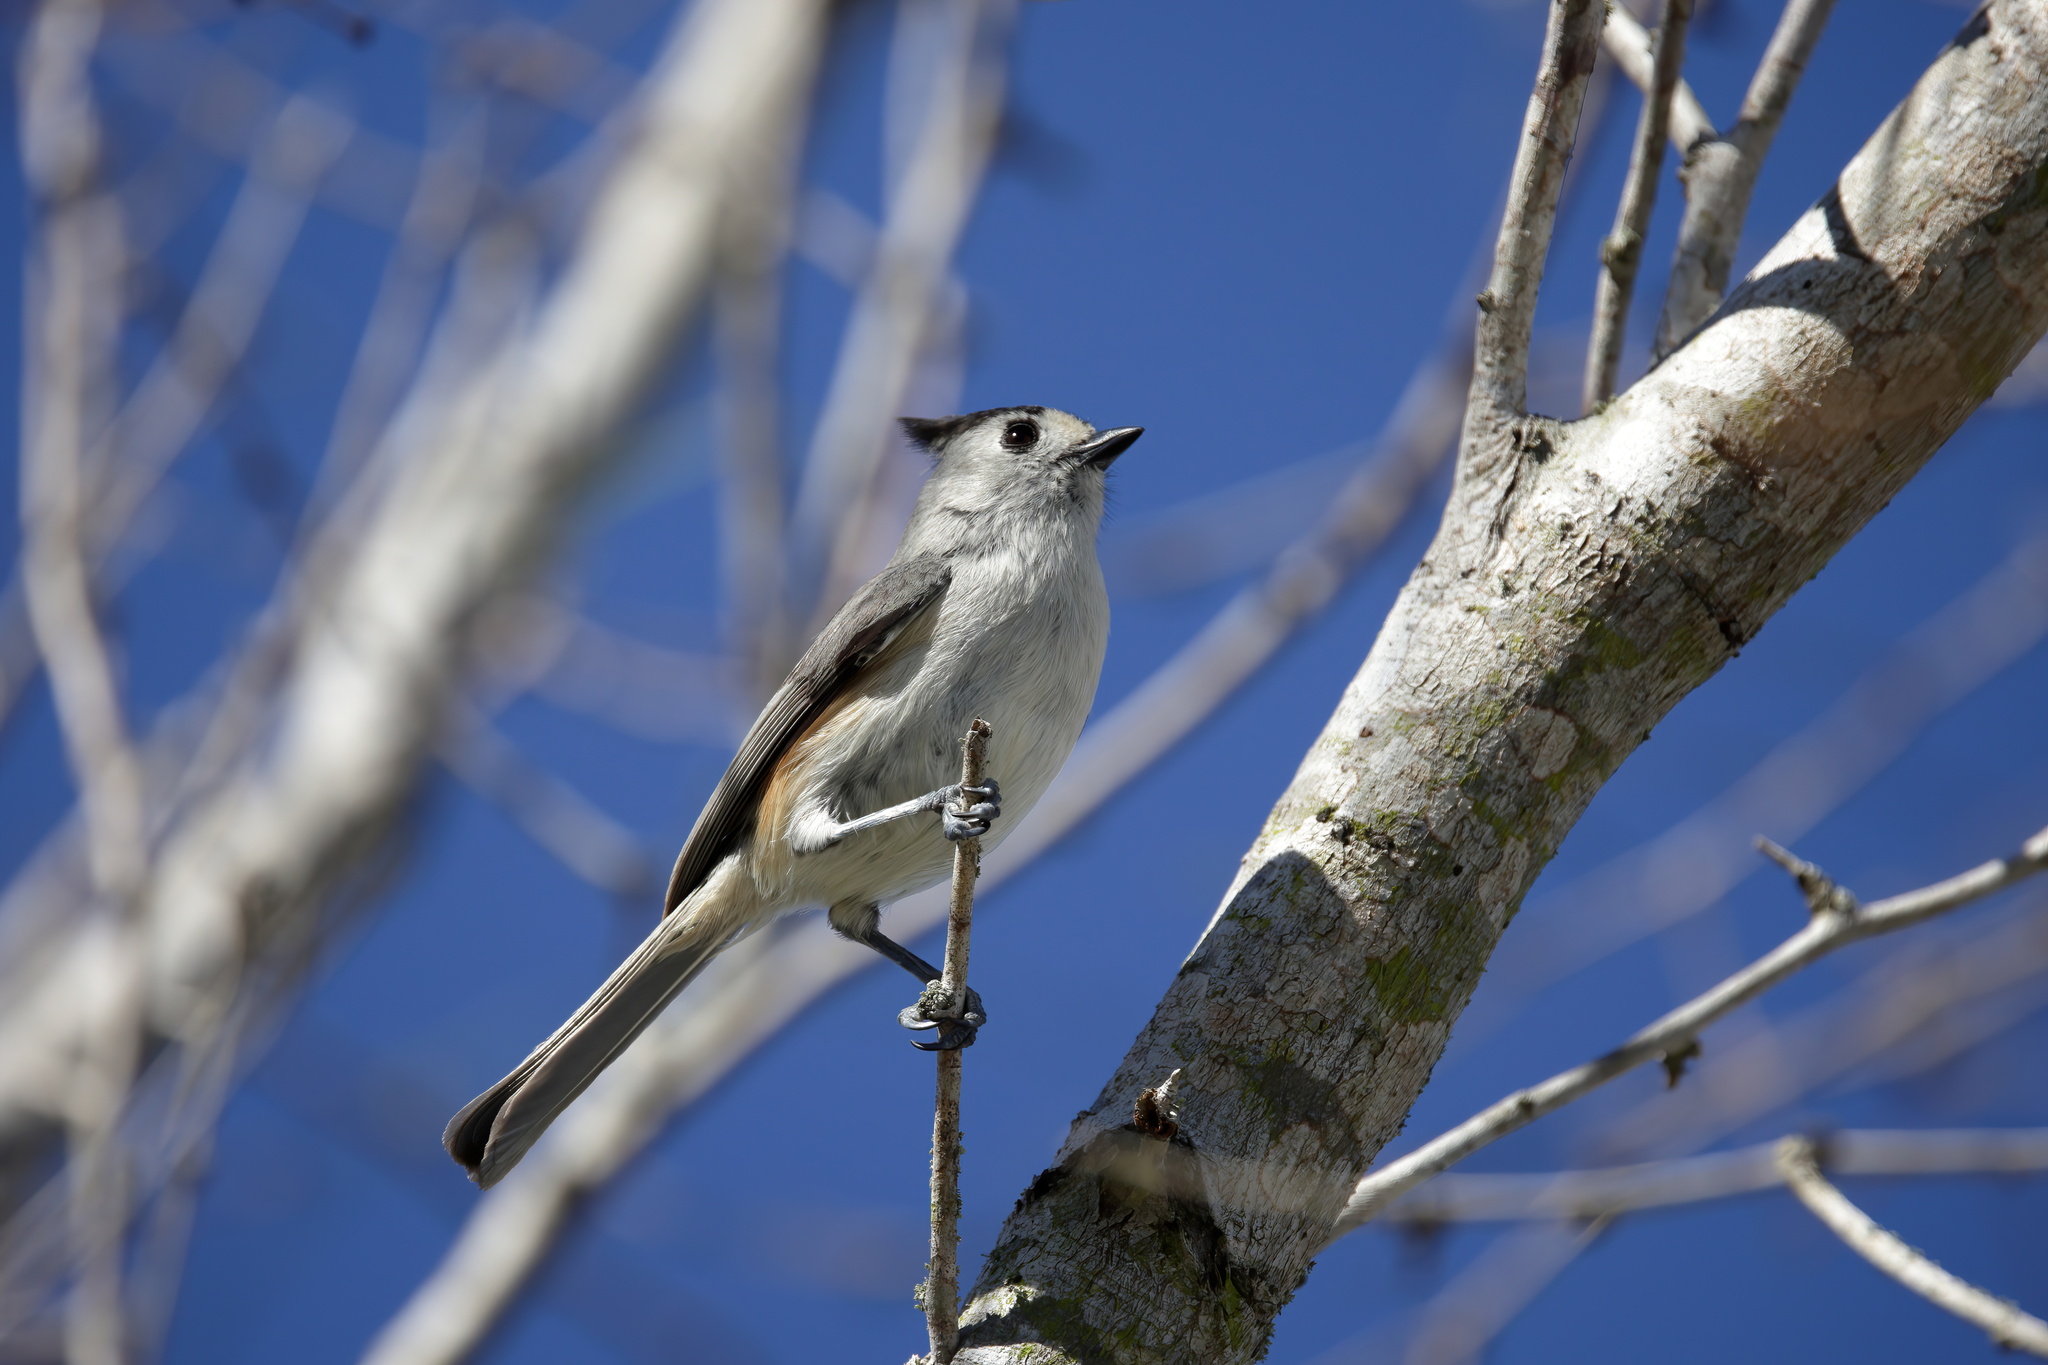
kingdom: Animalia
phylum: Chordata
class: Aves
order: Passeriformes
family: Paridae
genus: Baeolophus
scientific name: Baeolophus atricristatus
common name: Black-crested titmouse
